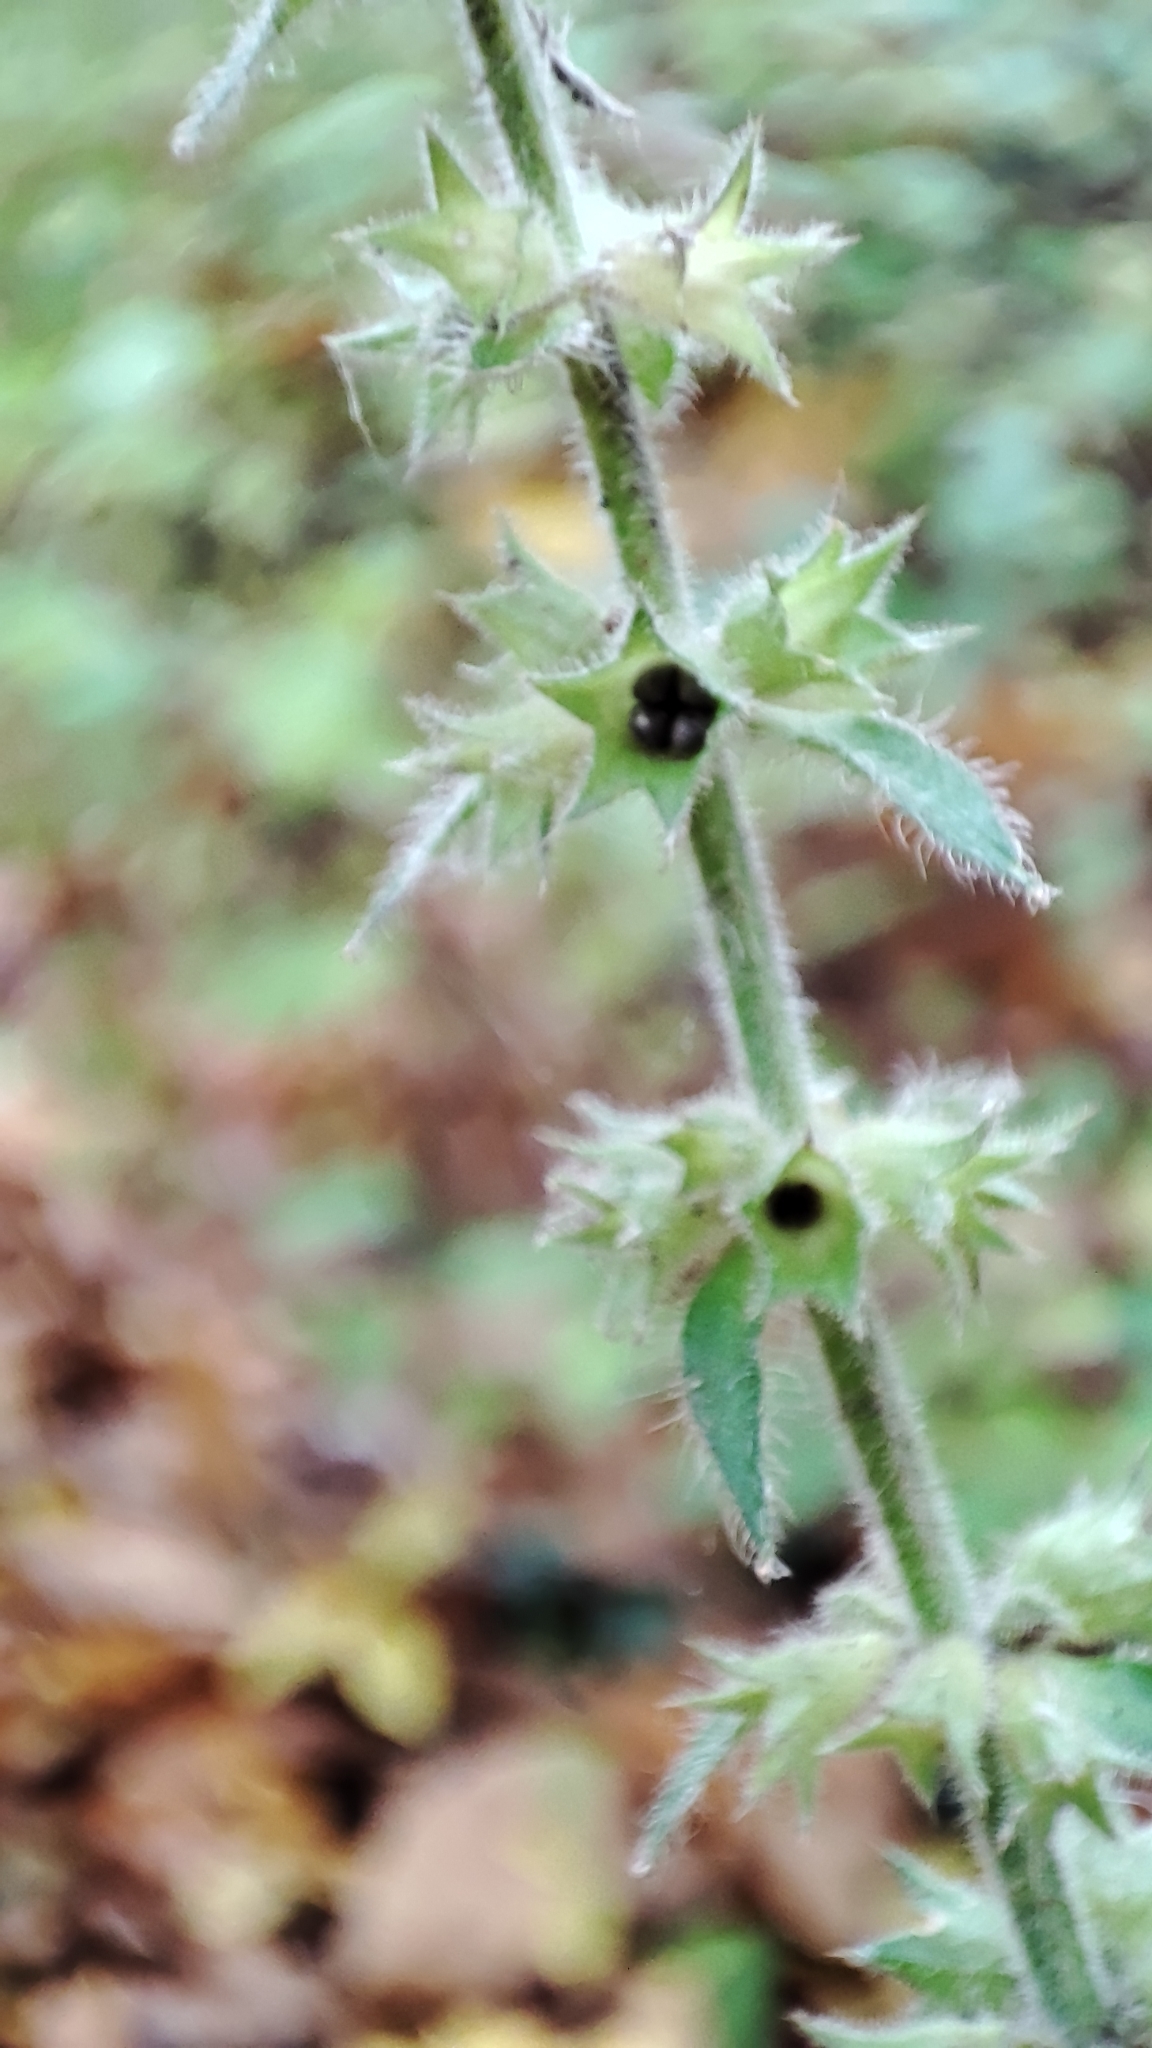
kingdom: Plantae
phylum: Tracheophyta
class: Magnoliopsida
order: Lamiales
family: Lamiaceae
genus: Stachys
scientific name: Stachys sylvatica
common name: Hedge woundwort
